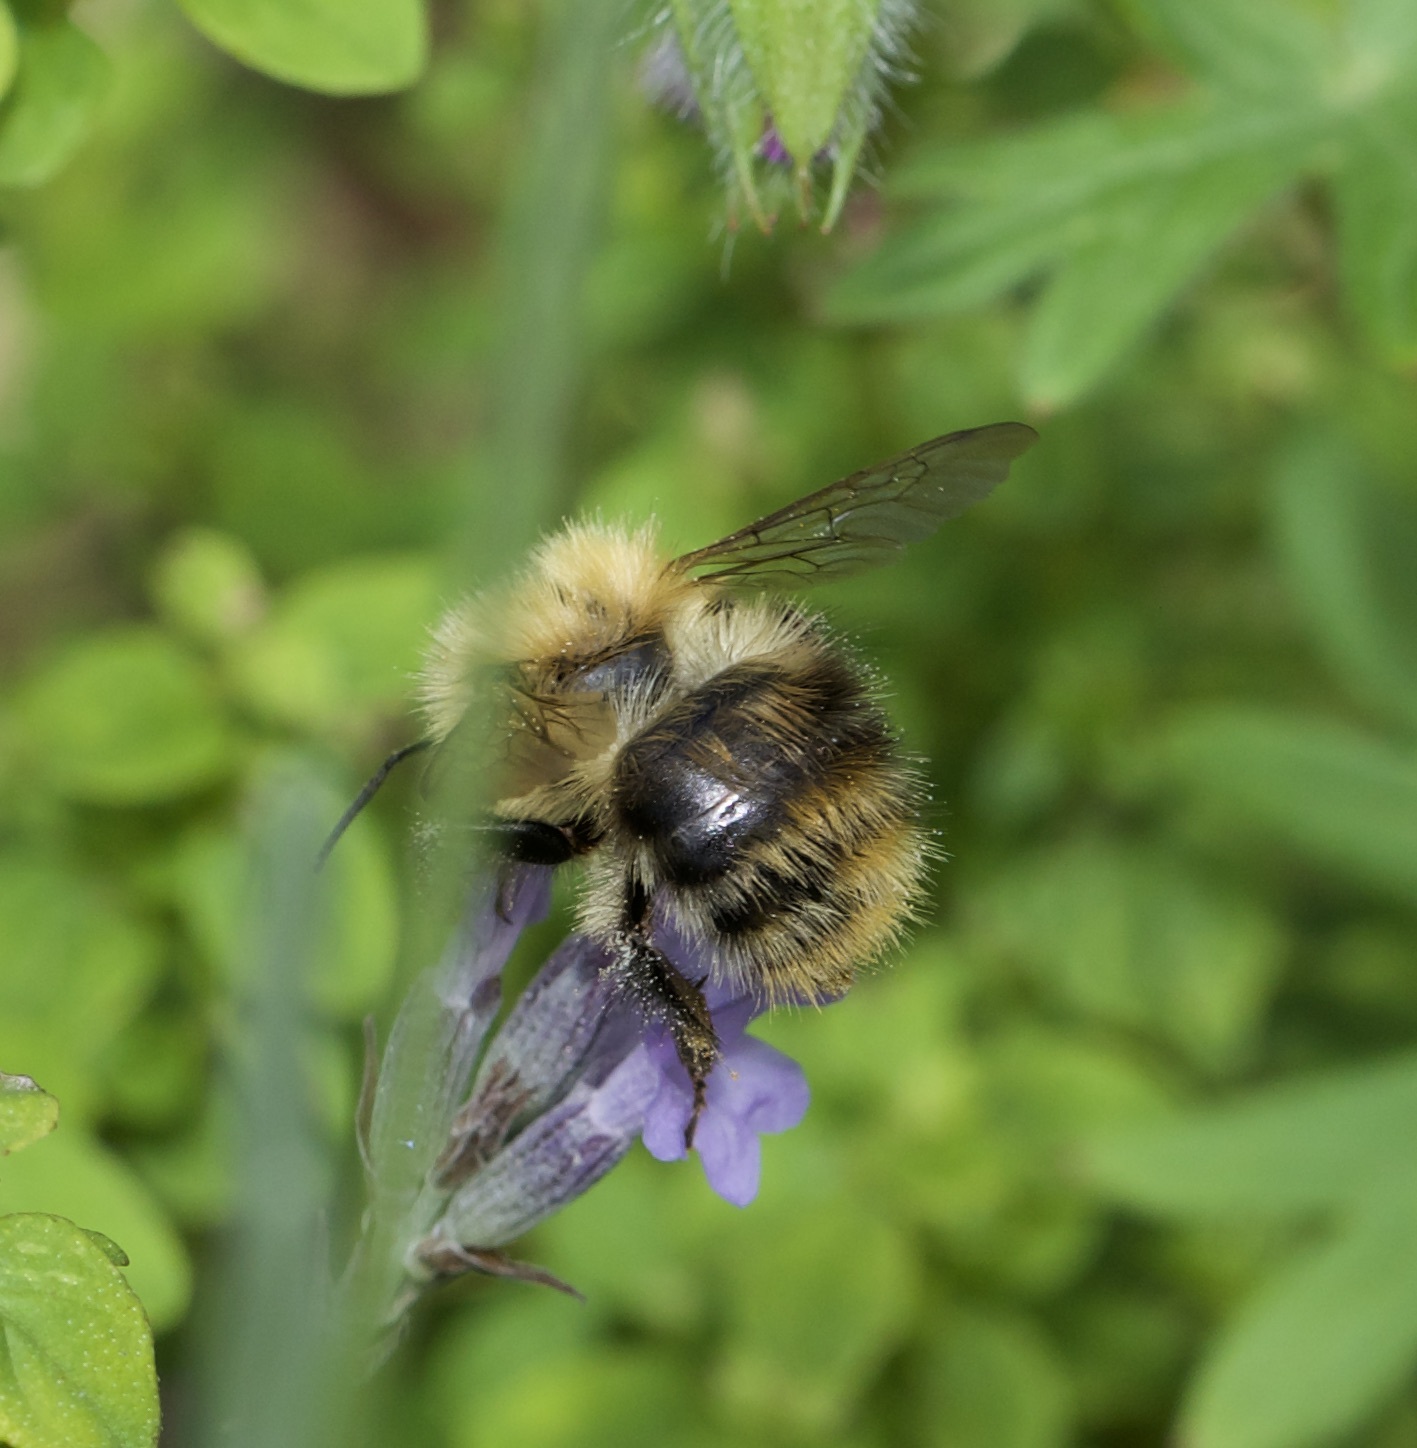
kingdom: Animalia
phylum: Arthropoda
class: Insecta
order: Hymenoptera
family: Apidae
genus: Bombus
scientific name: Bombus pascuorum
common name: Common carder bee
